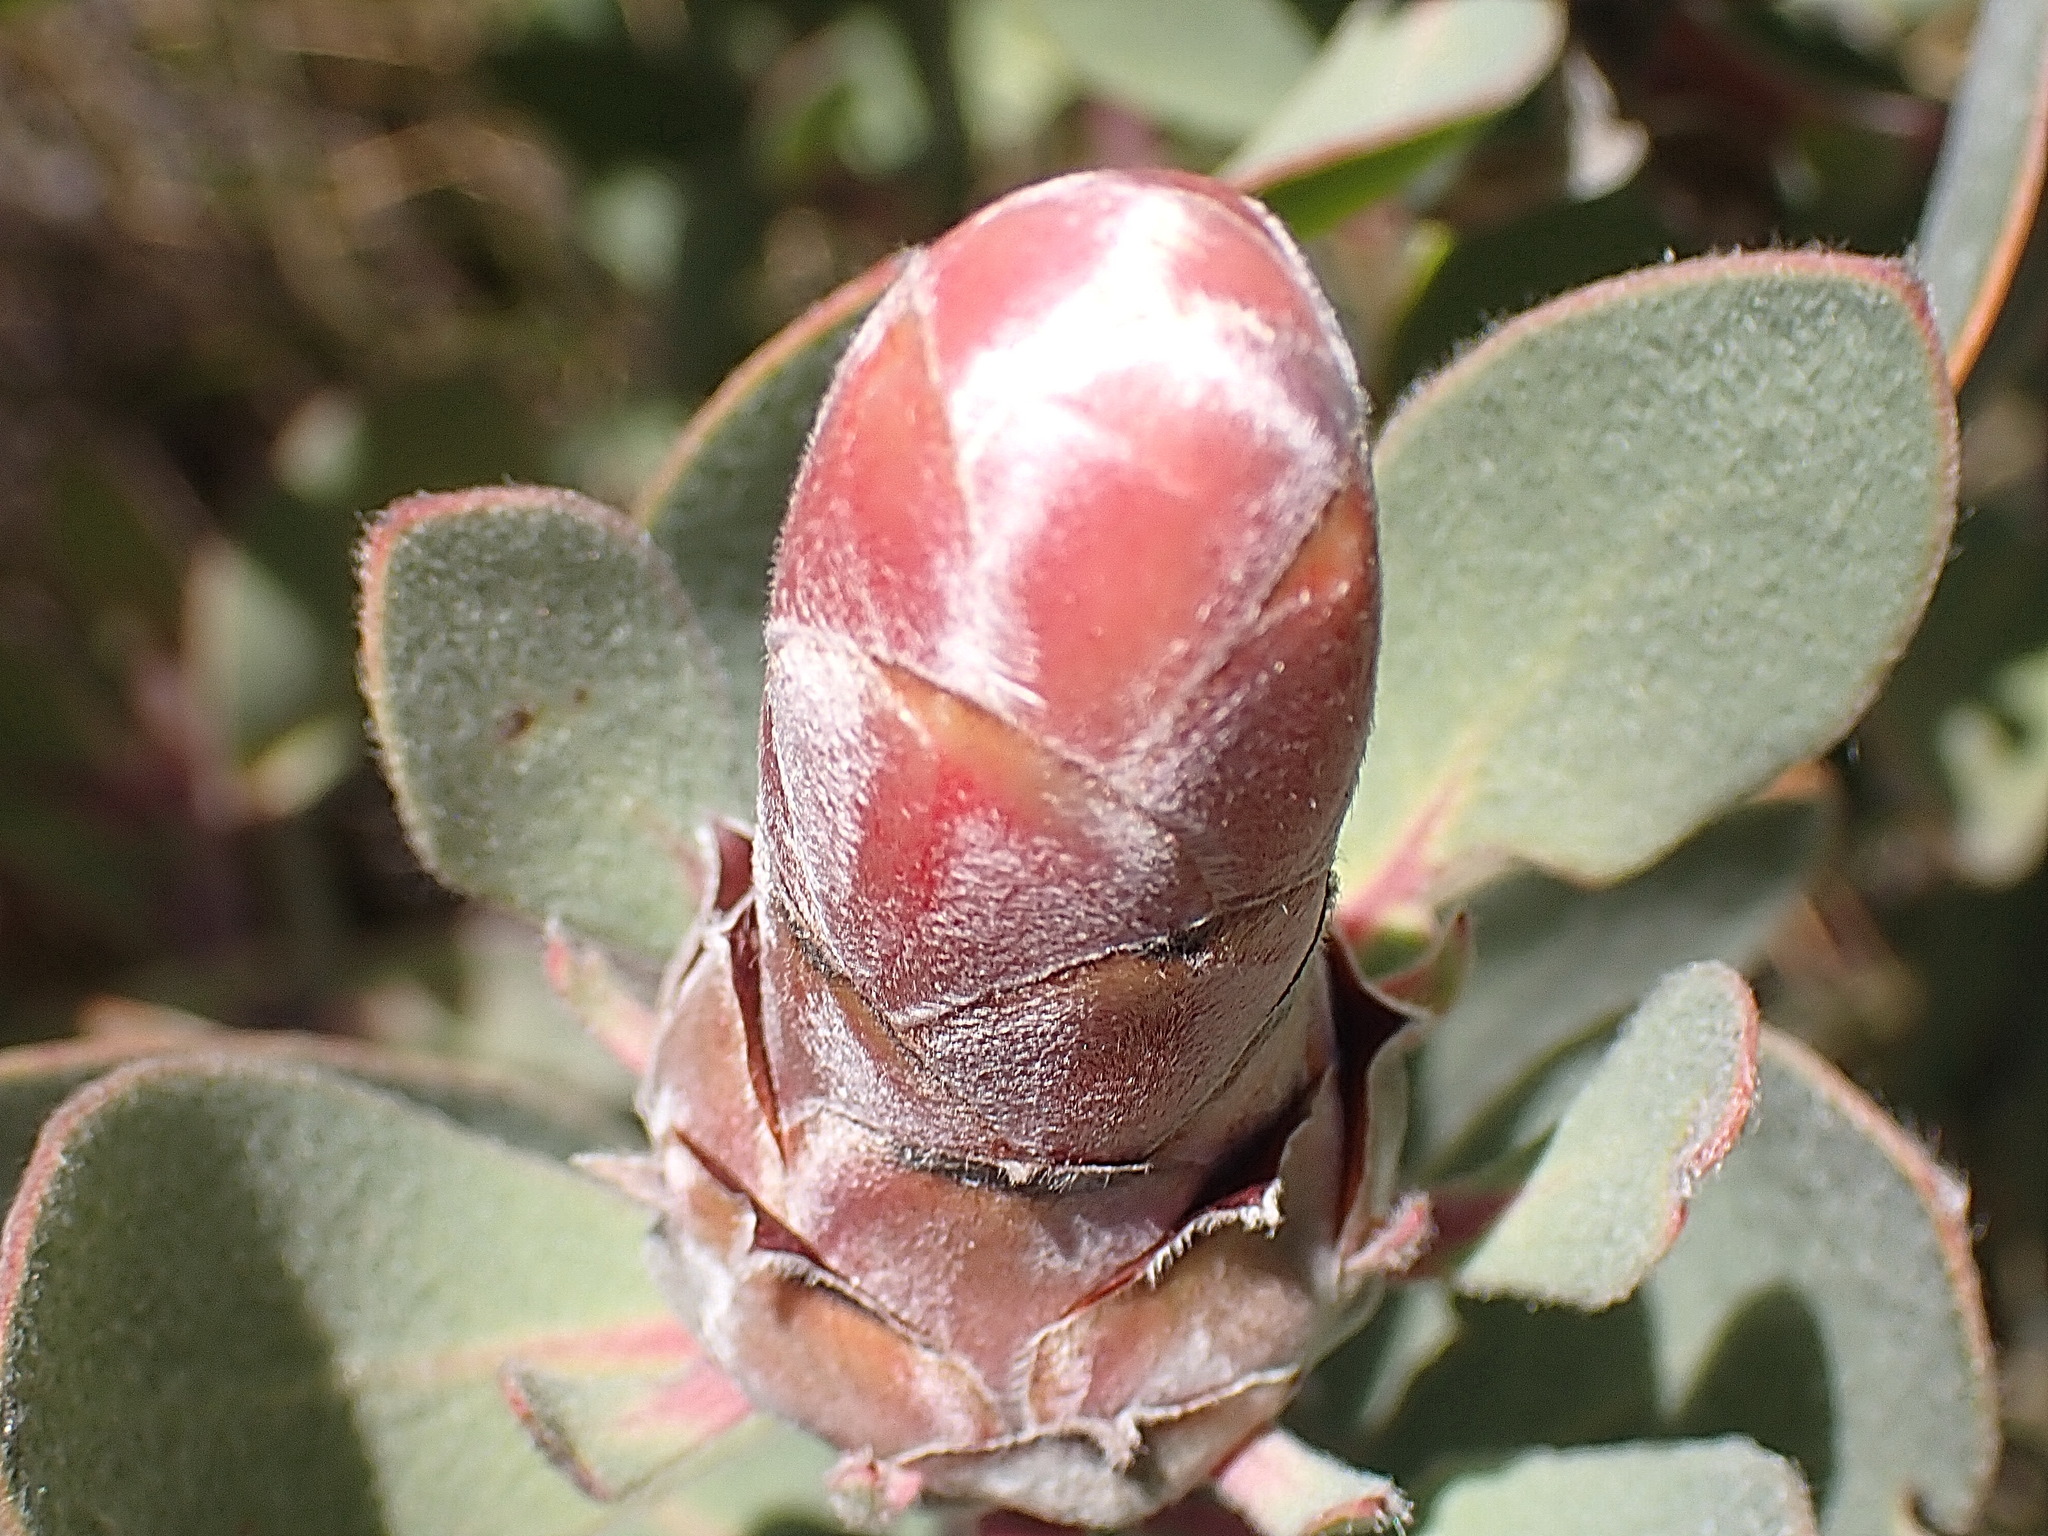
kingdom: Plantae
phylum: Tracheophyta
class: Magnoliopsida
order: Proteales
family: Proteaceae
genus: Protea
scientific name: Protea punctata
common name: Water sugarbush
